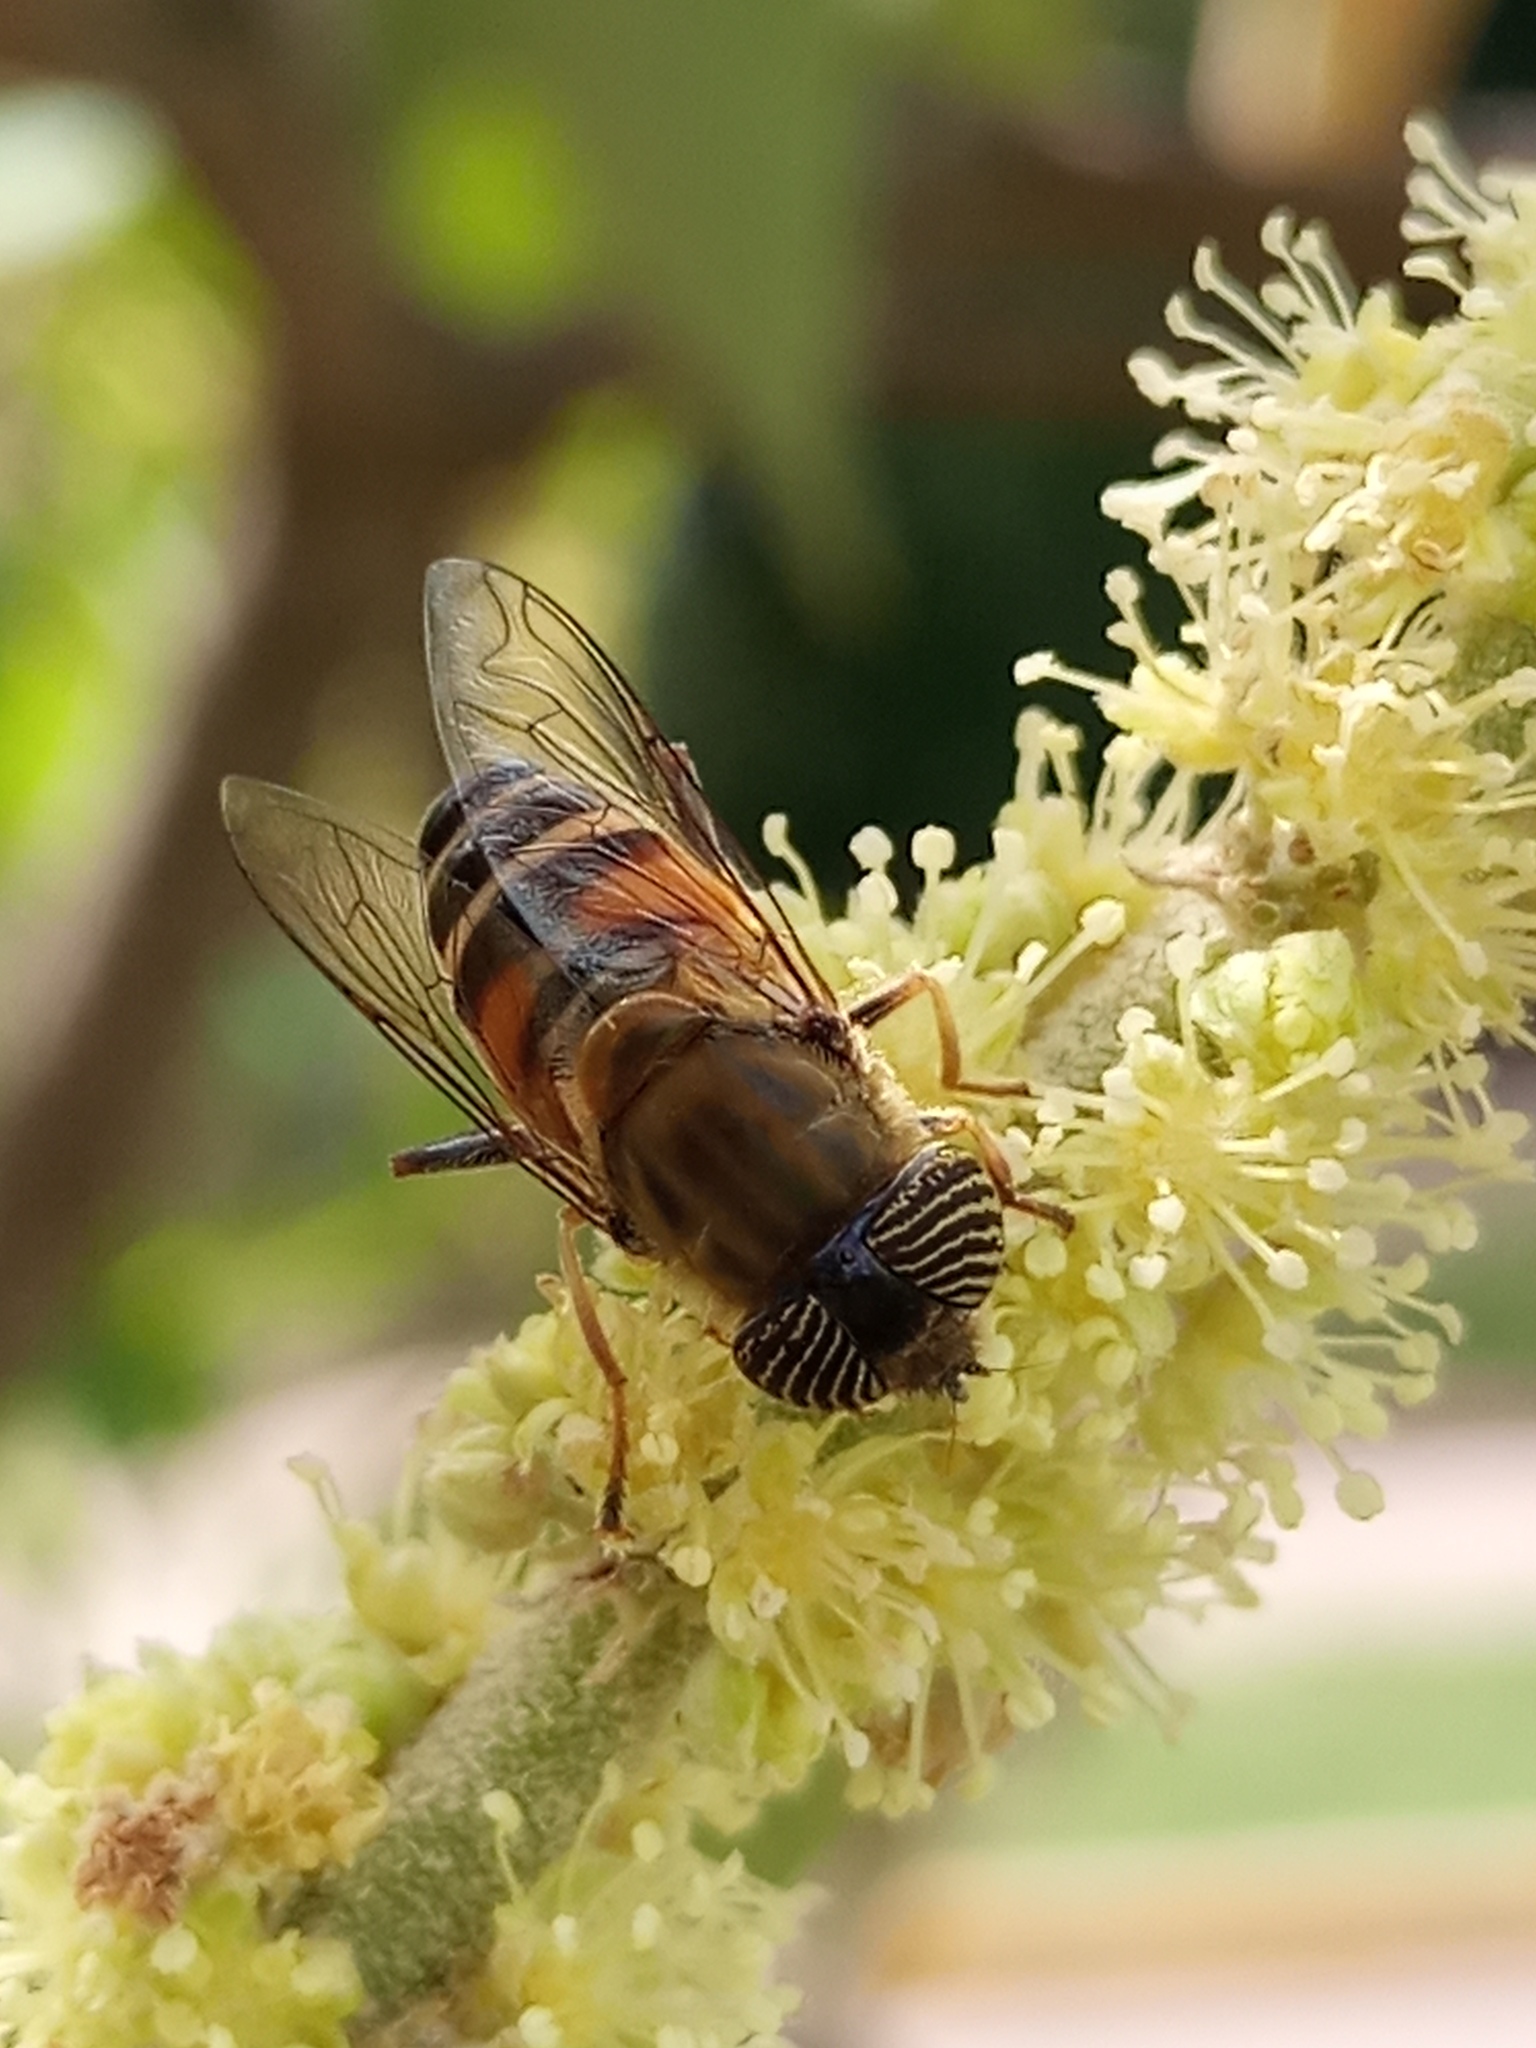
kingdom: Animalia
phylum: Arthropoda
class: Insecta
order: Diptera
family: Syrphidae
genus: Eristalinus
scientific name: Eristalinus taeniops
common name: Syrphid fly
